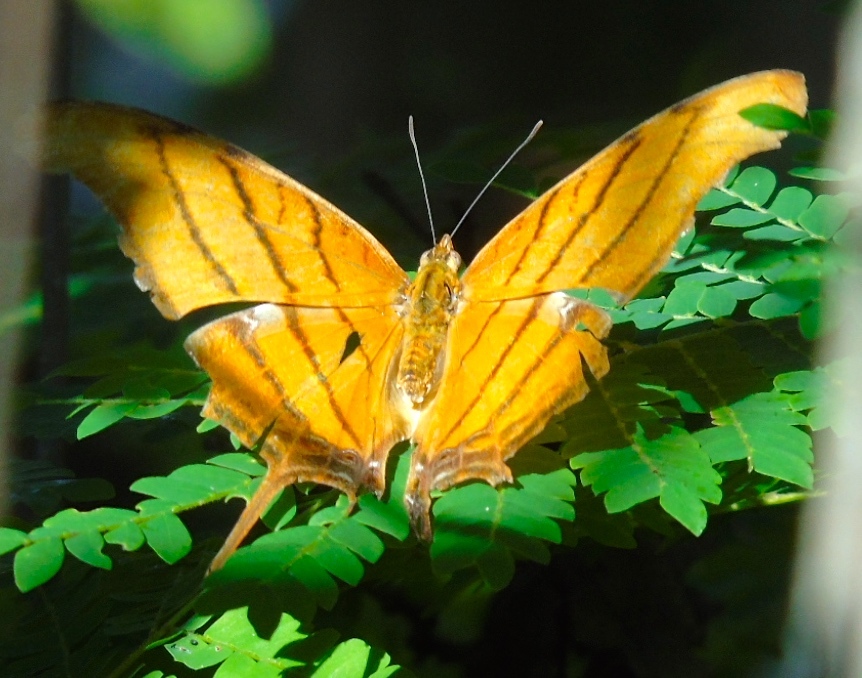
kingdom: Animalia
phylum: Arthropoda
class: Insecta
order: Lepidoptera
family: Nymphalidae
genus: Marpesia
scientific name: Marpesia petreus
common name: Red dagger wing
